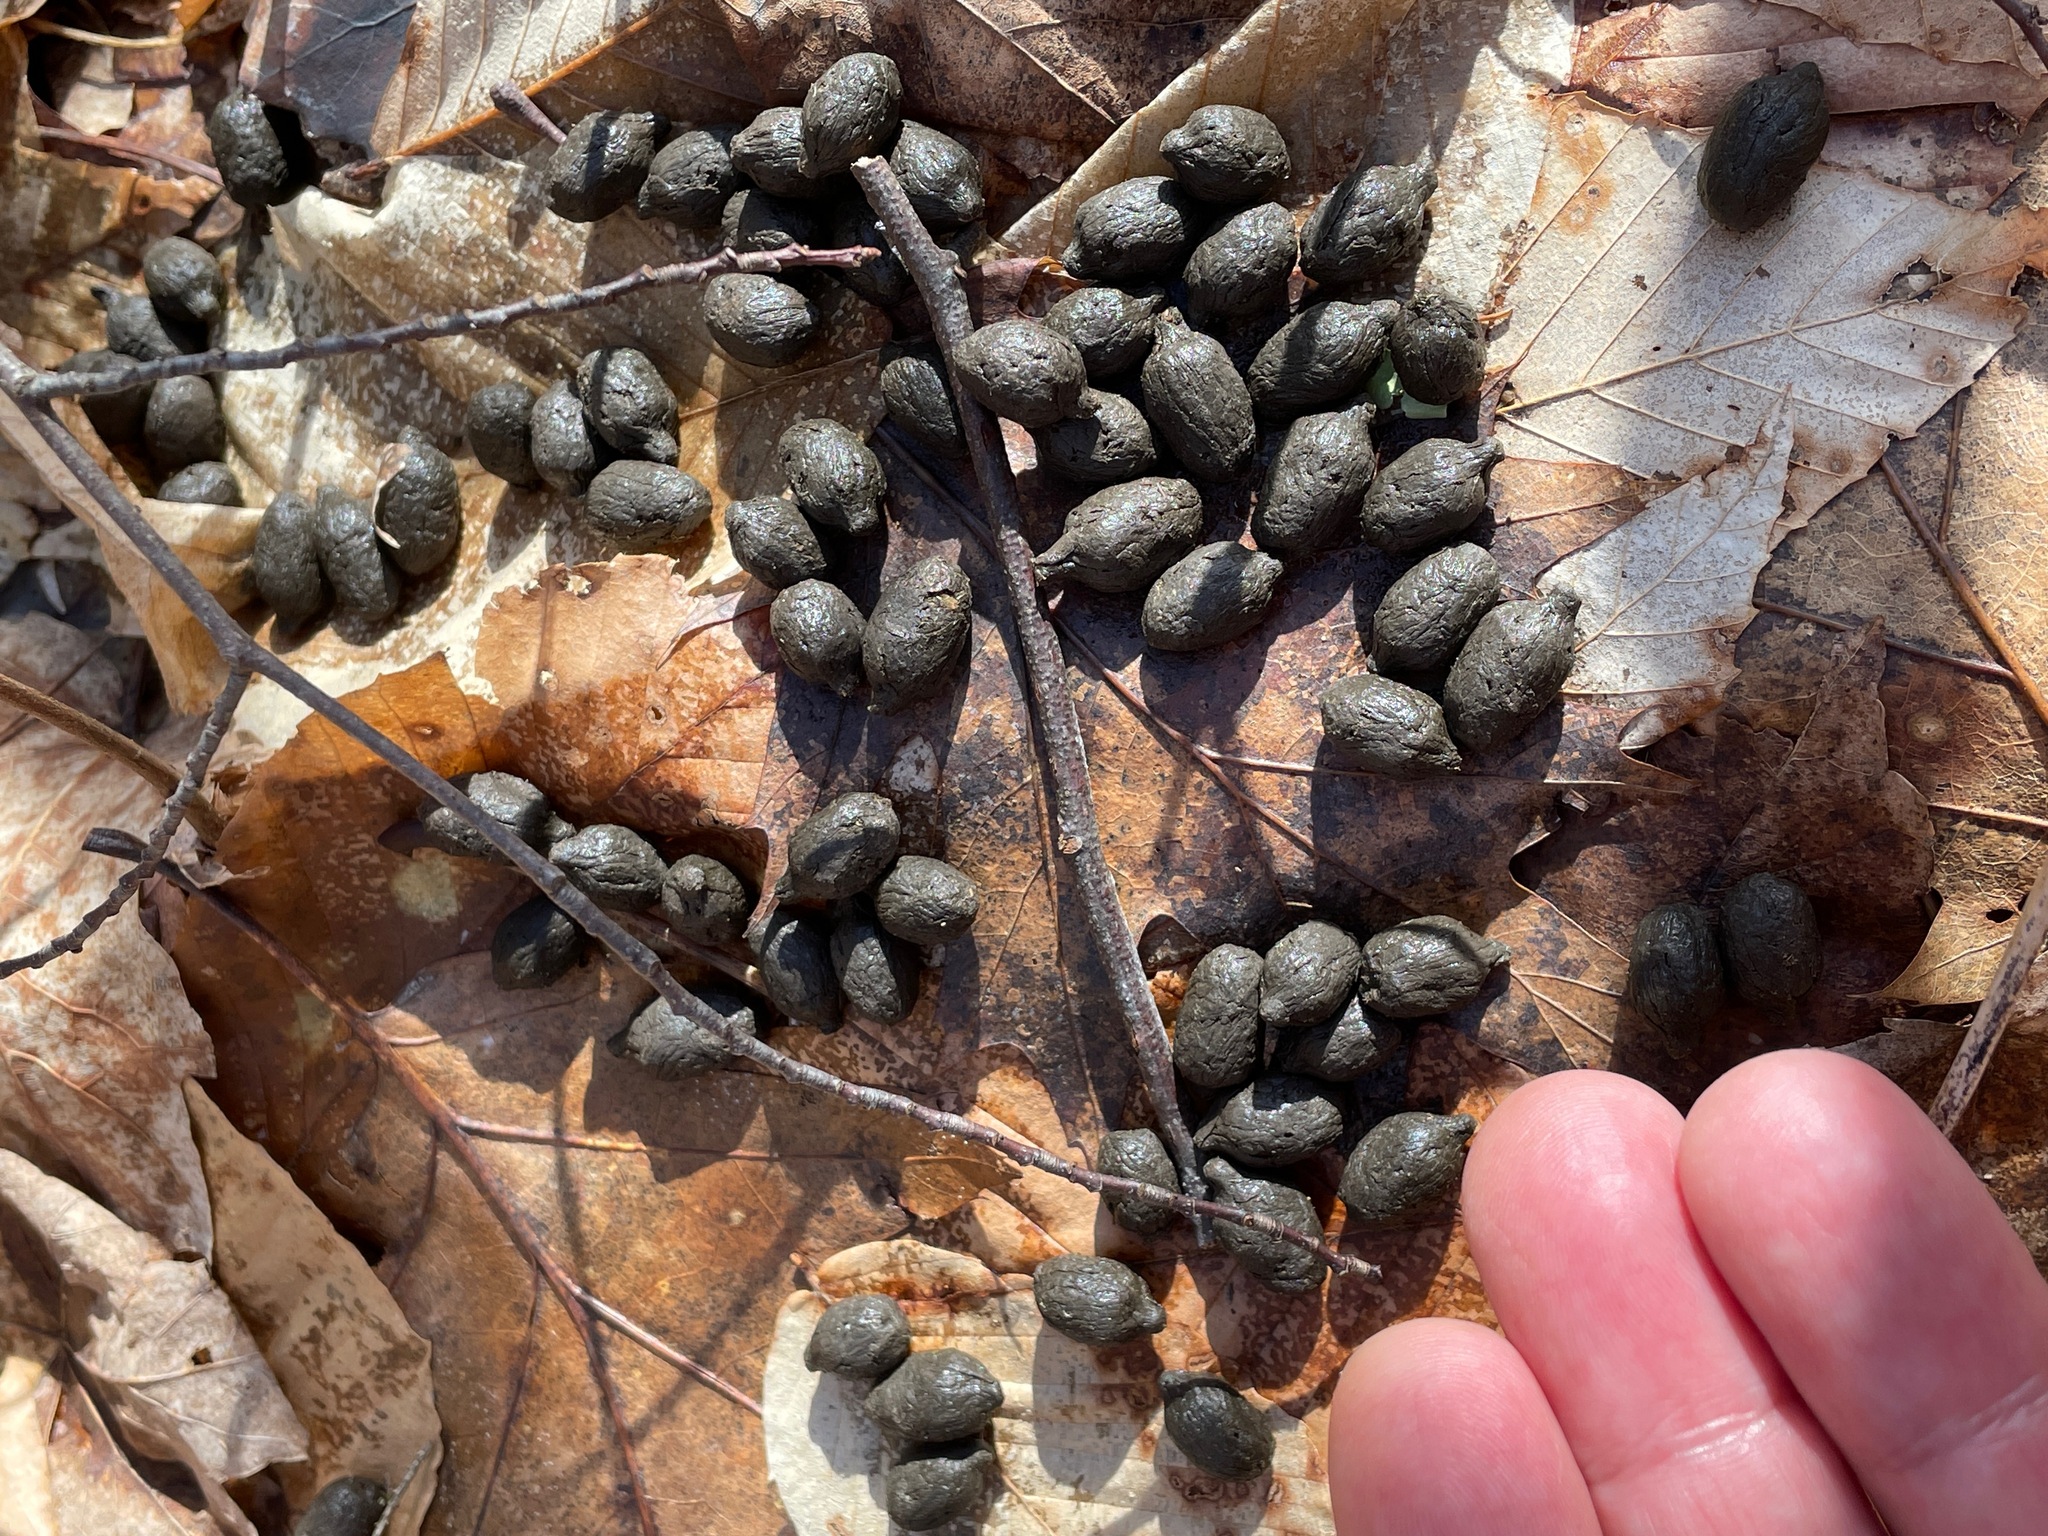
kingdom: Animalia
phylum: Chordata
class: Mammalia
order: Artiodactyla
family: Cervidae
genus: Odocoileus
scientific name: Odocoileus virginianus
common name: White-tailed deer
